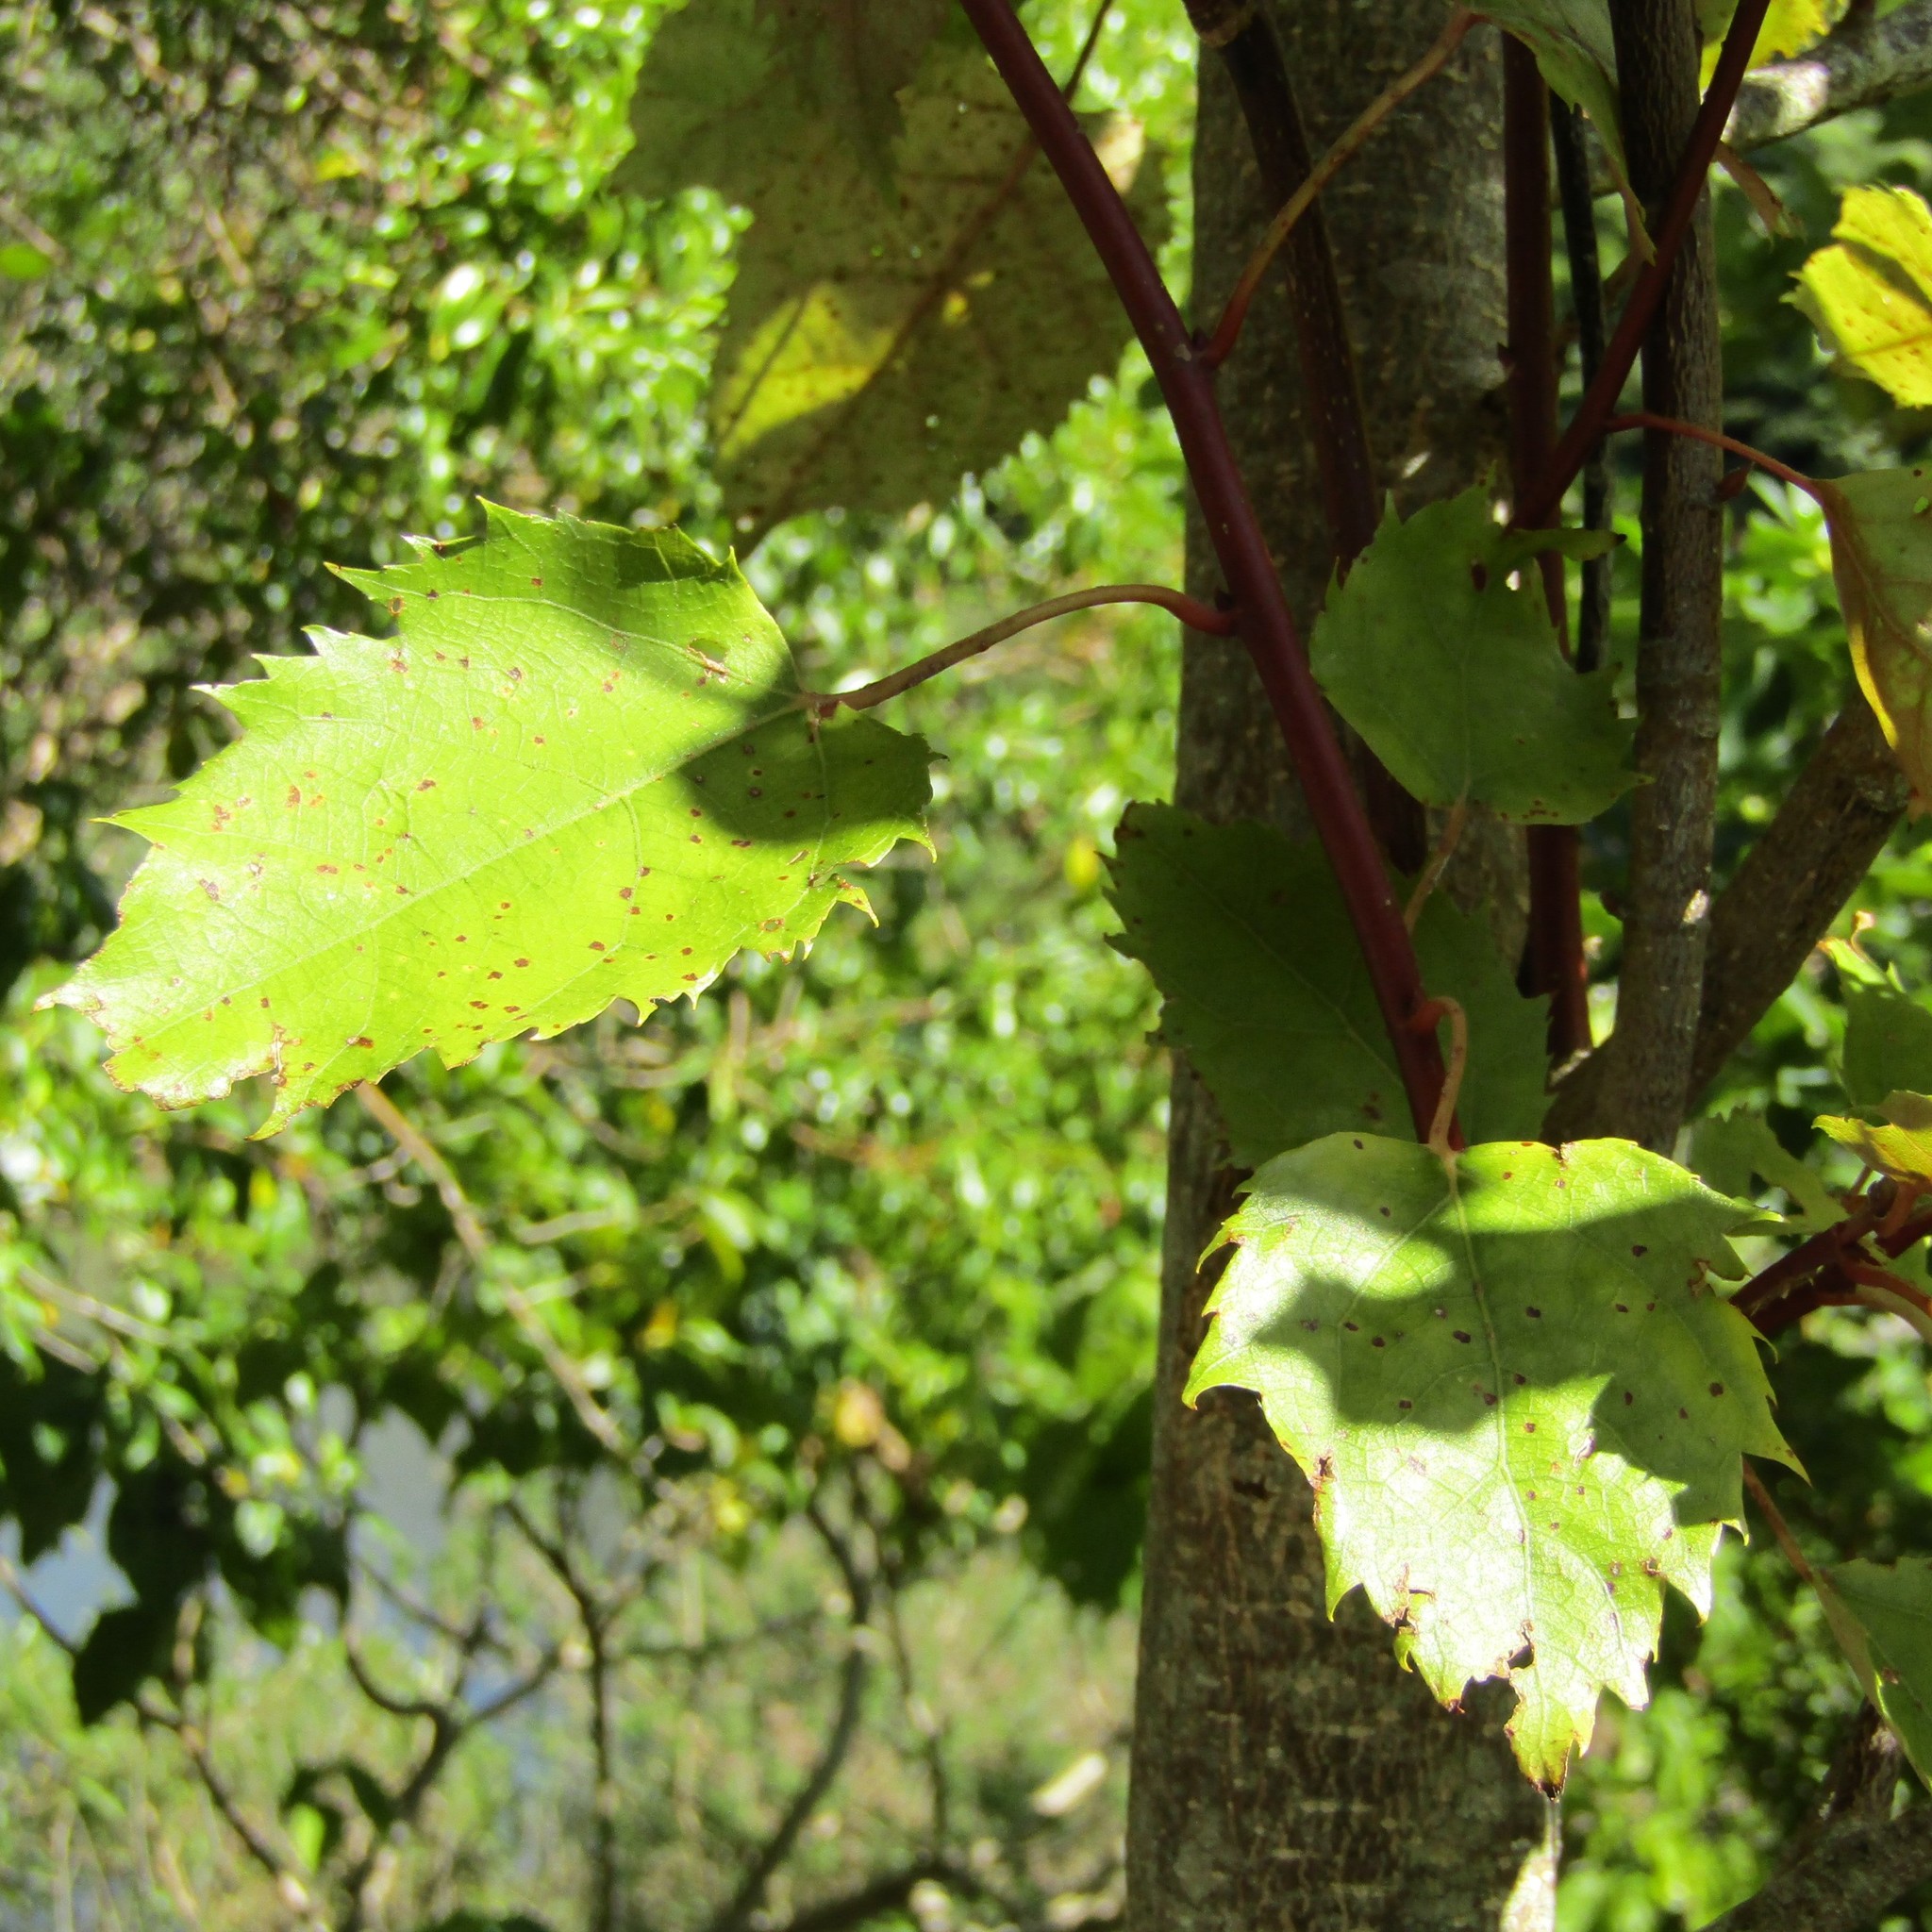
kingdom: Animalia
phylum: Arthropoda
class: Insecta
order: Hymenoptera
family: Vespidae
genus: Vespula
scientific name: Vespula vulgaris
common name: Common wasp
